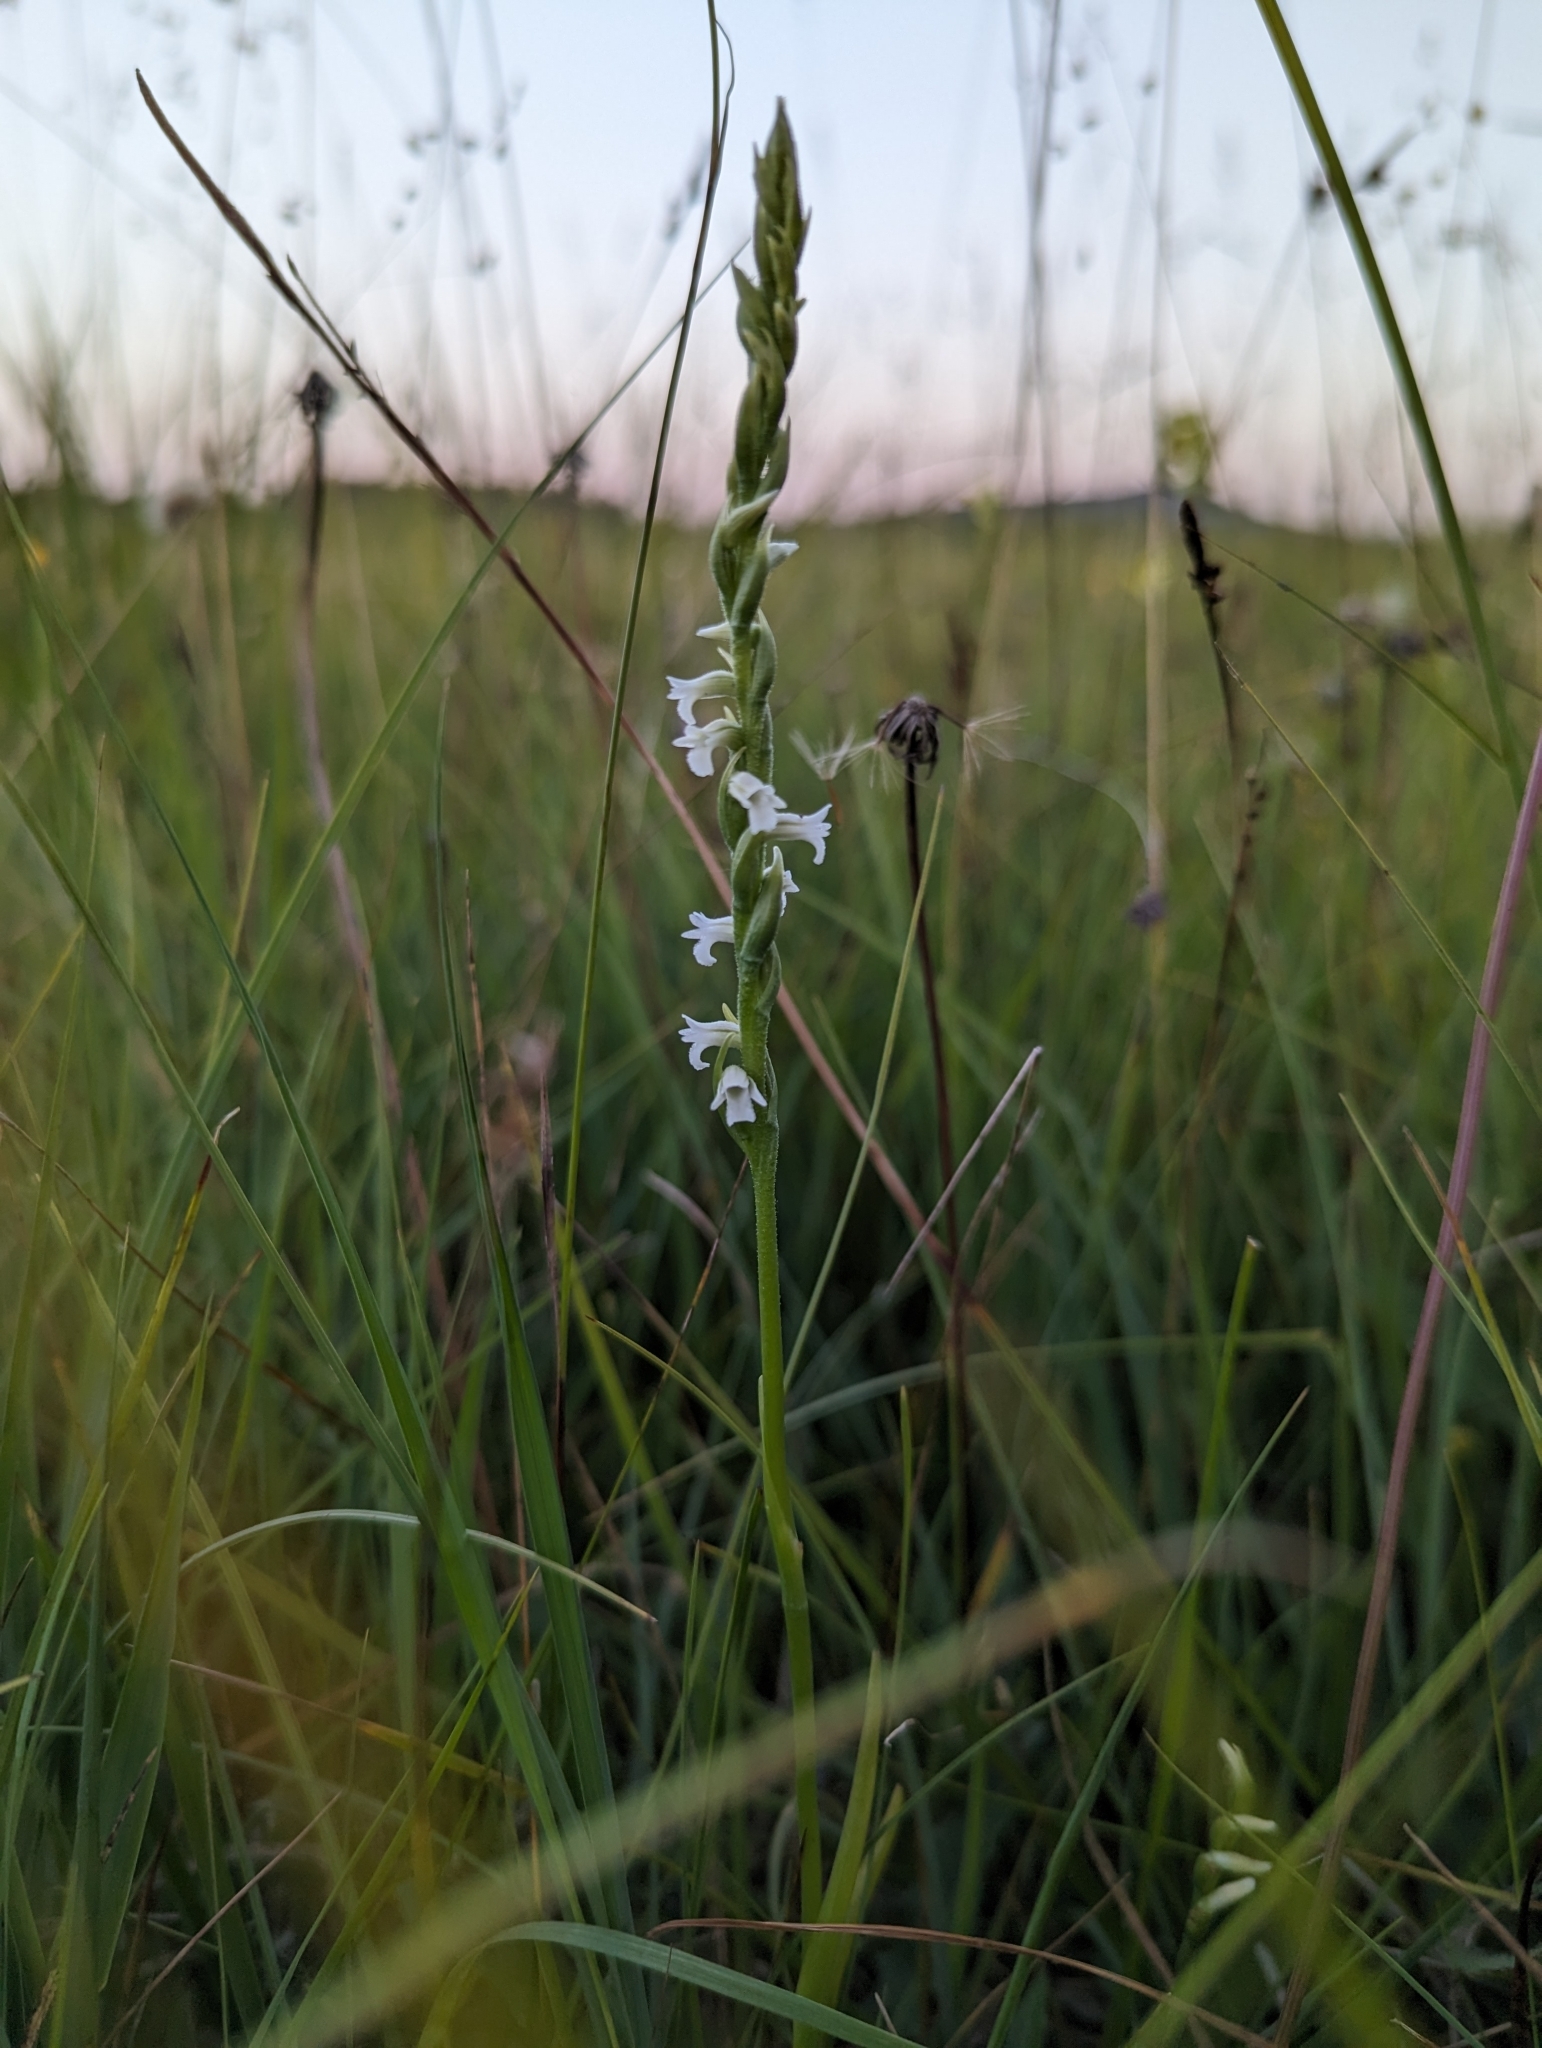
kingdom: Plantae
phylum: Tracheophyta
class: Liliopsida
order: Asparagales
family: Orchidaceae
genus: Spiranthes
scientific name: Spiranthes aestivalis
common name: Summer lady's-tresses
